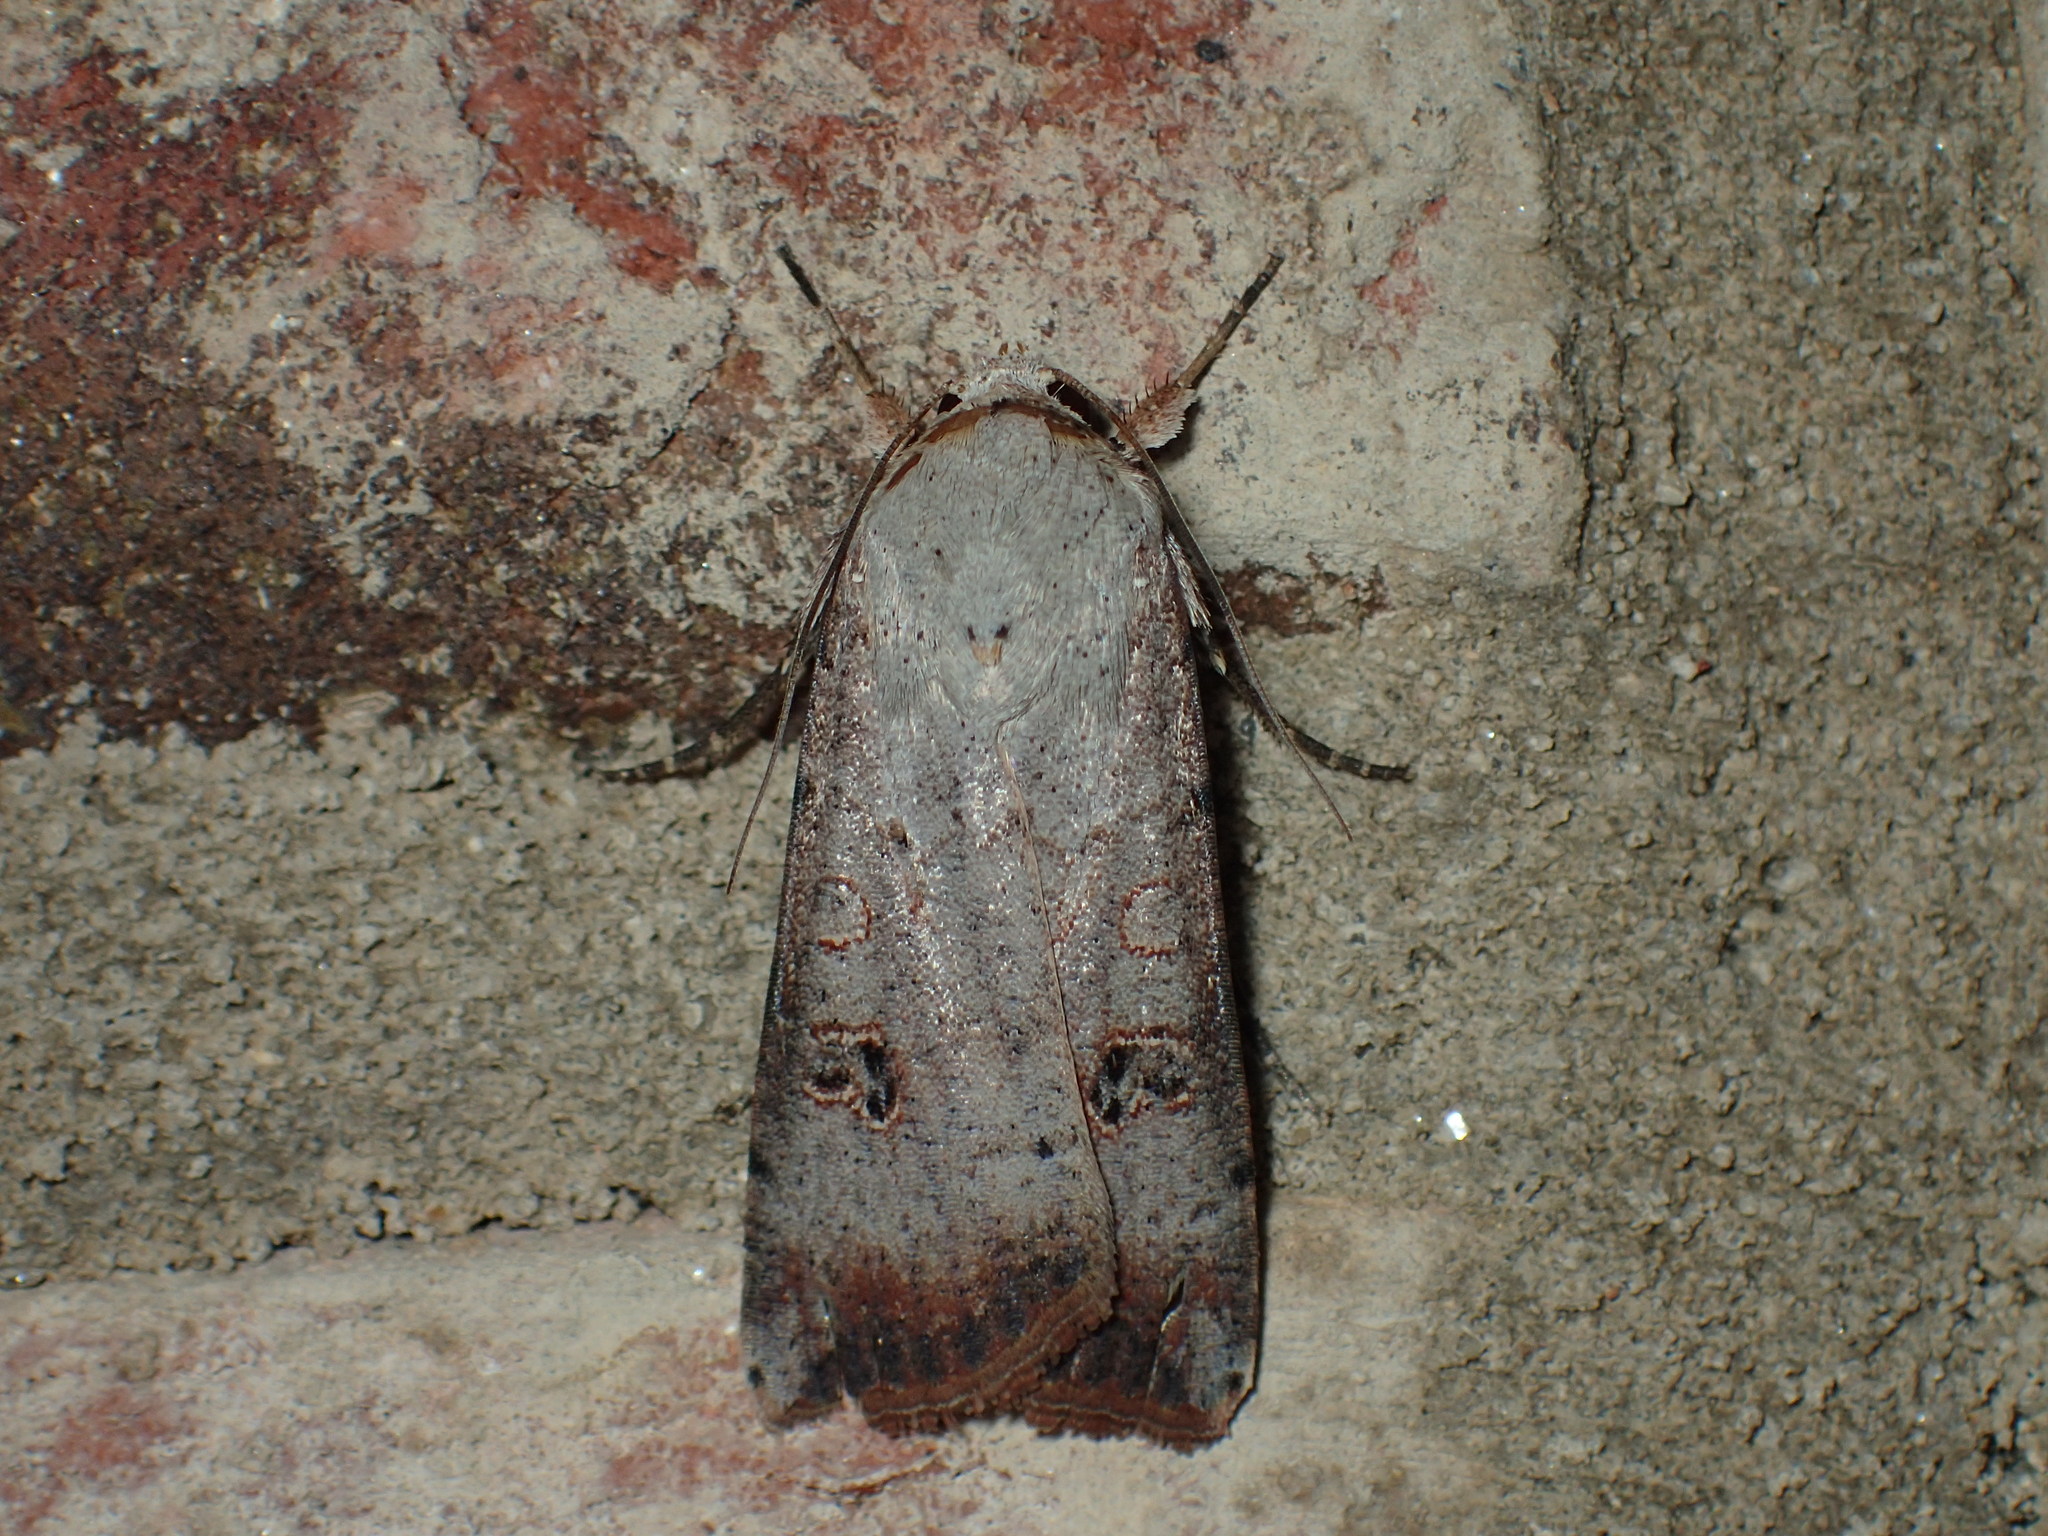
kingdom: Animalia
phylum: Arthropoda
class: Insecta
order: Lepidoptera
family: Noctuidae
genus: Anicla
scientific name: Anicla infecta
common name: Green cutworm
